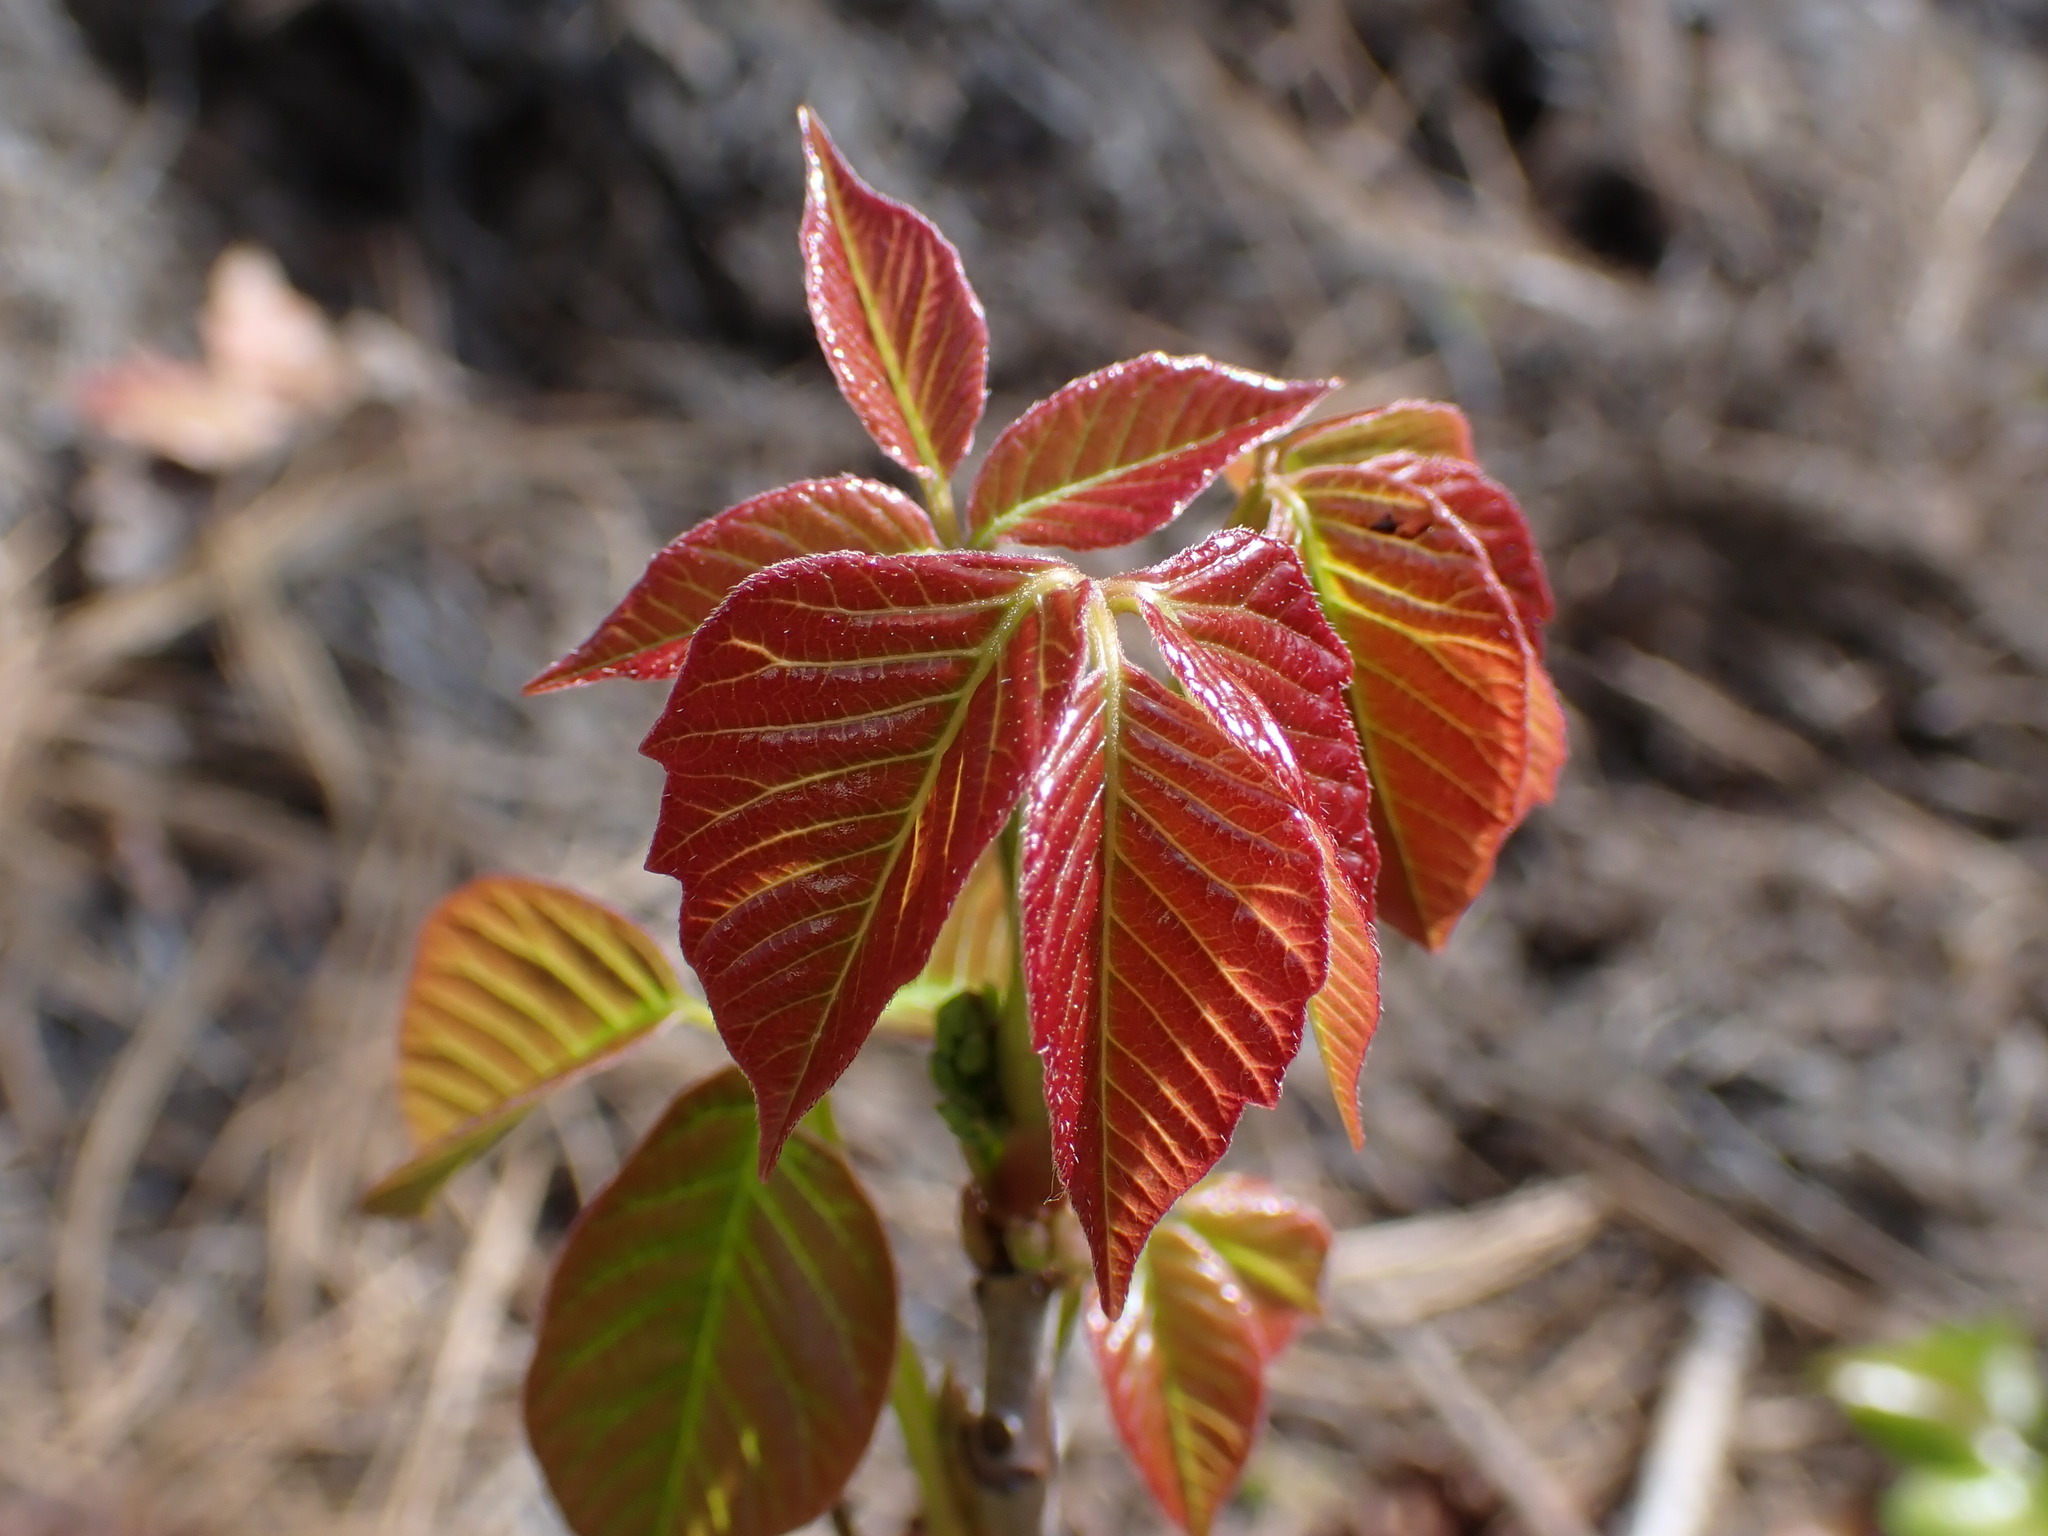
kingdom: Plantae
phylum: Tracheophyta
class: Magnoliopsida
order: Sapindales
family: Anacardiaceae
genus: Toxicodendron
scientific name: Toxicodendron rydbergii
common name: Rydberg's poison-ivy
